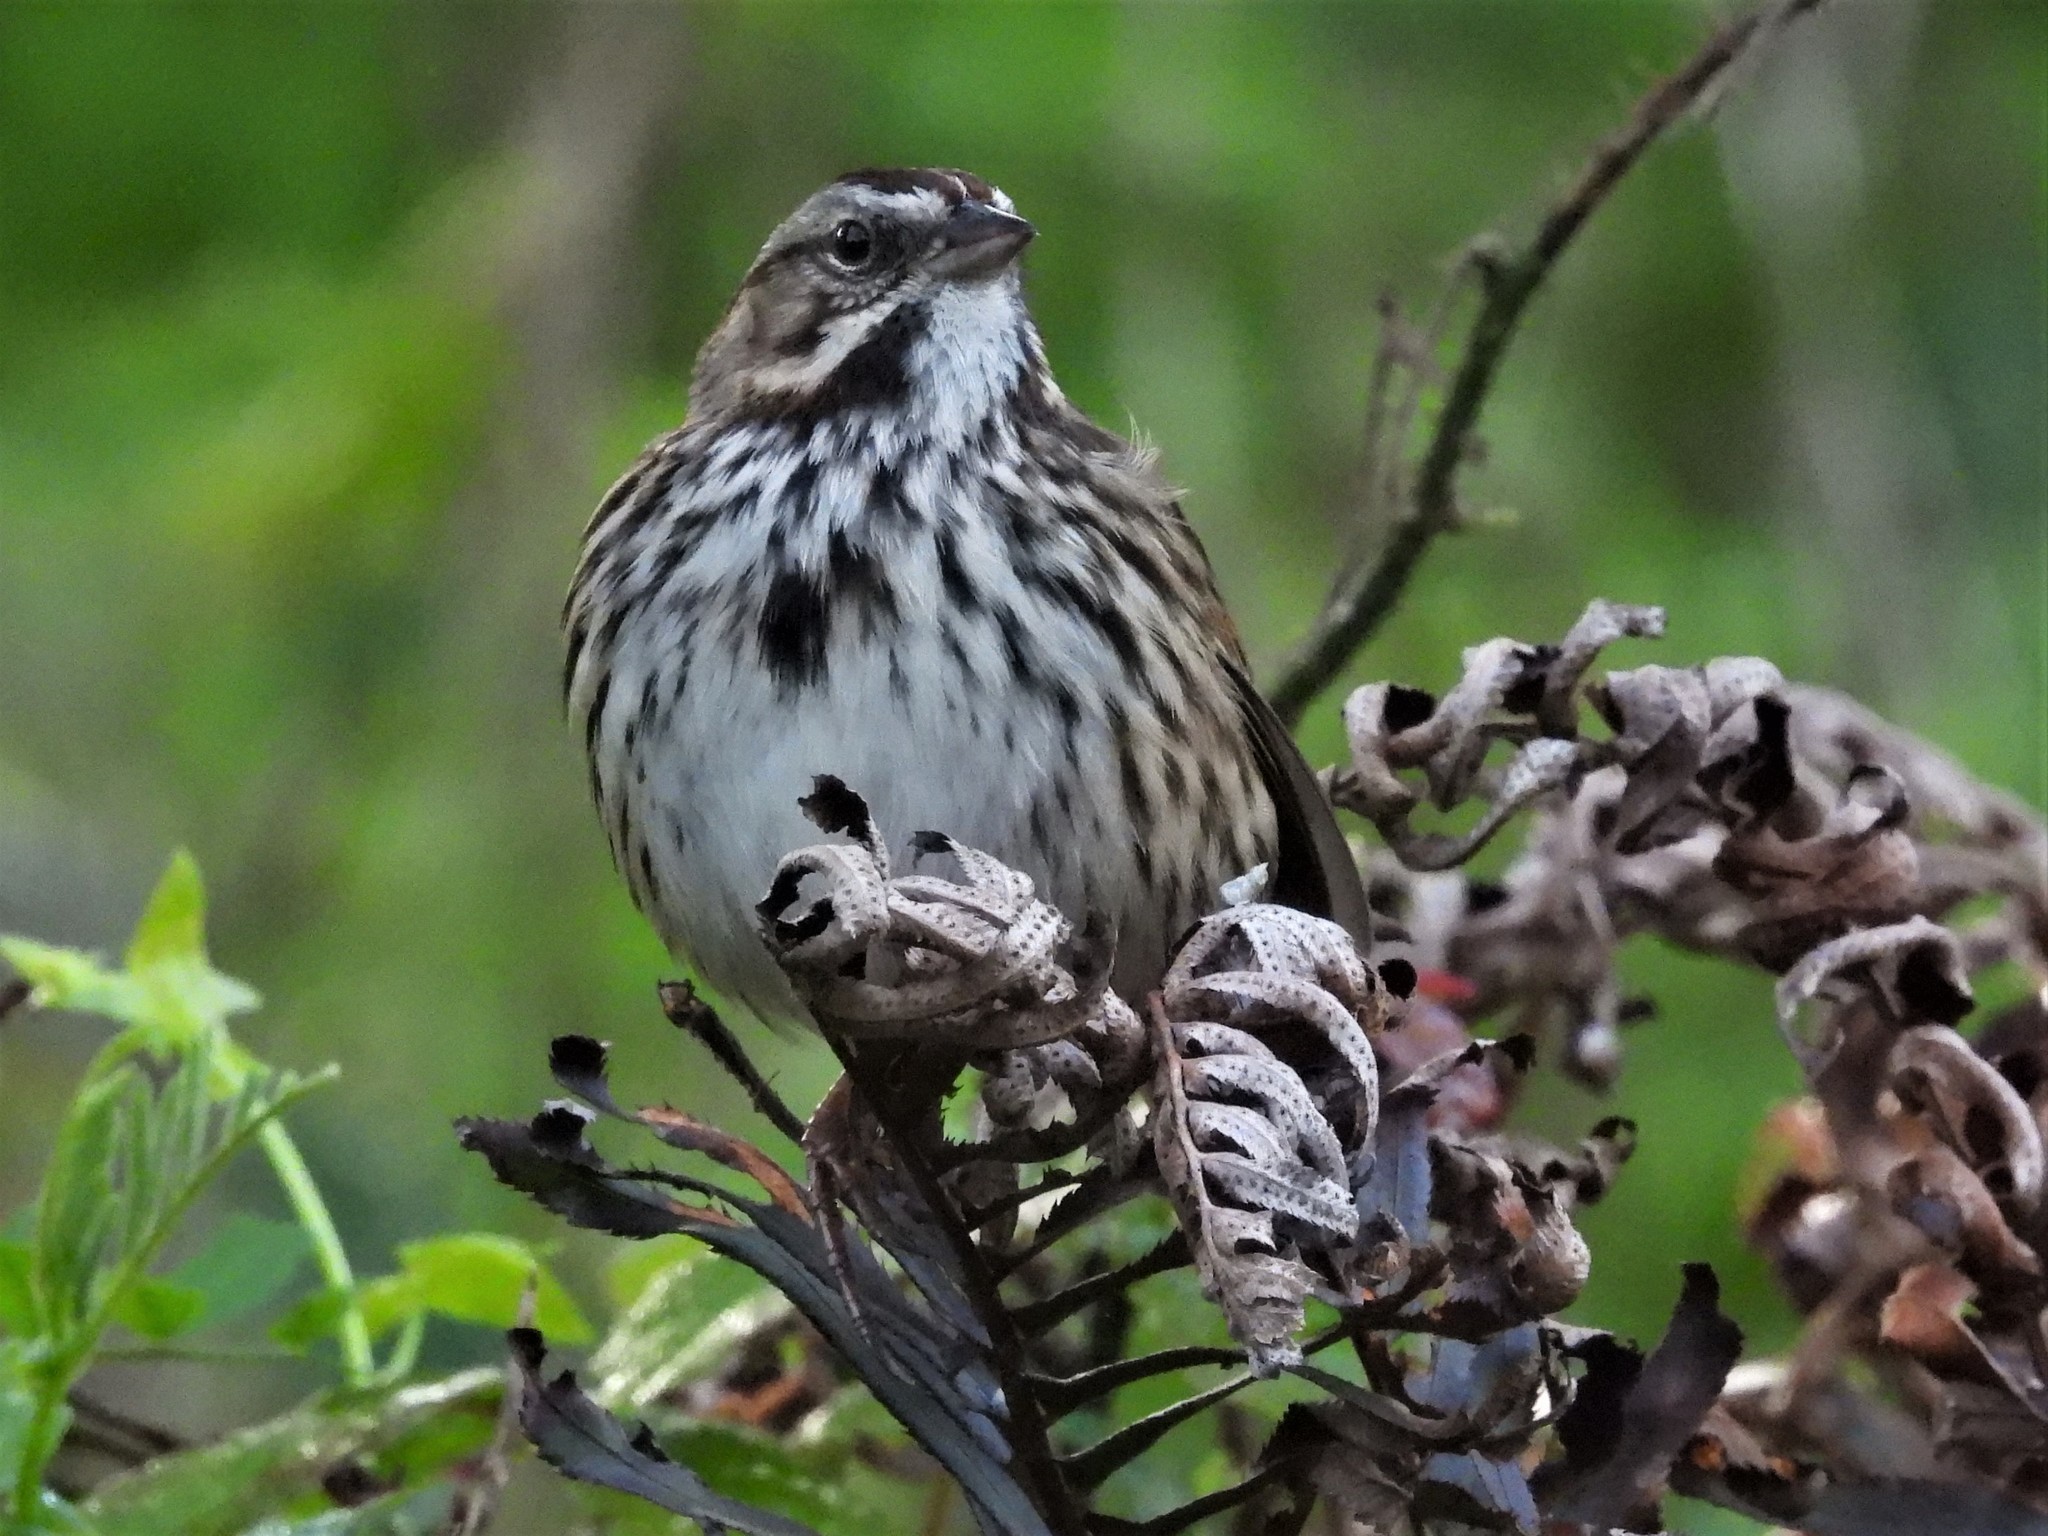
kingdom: Animalia
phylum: Chordata
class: Aves
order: Passeriformes
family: Passerellidae
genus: Melospiza
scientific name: Melospiza melodia
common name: Song sparrow
